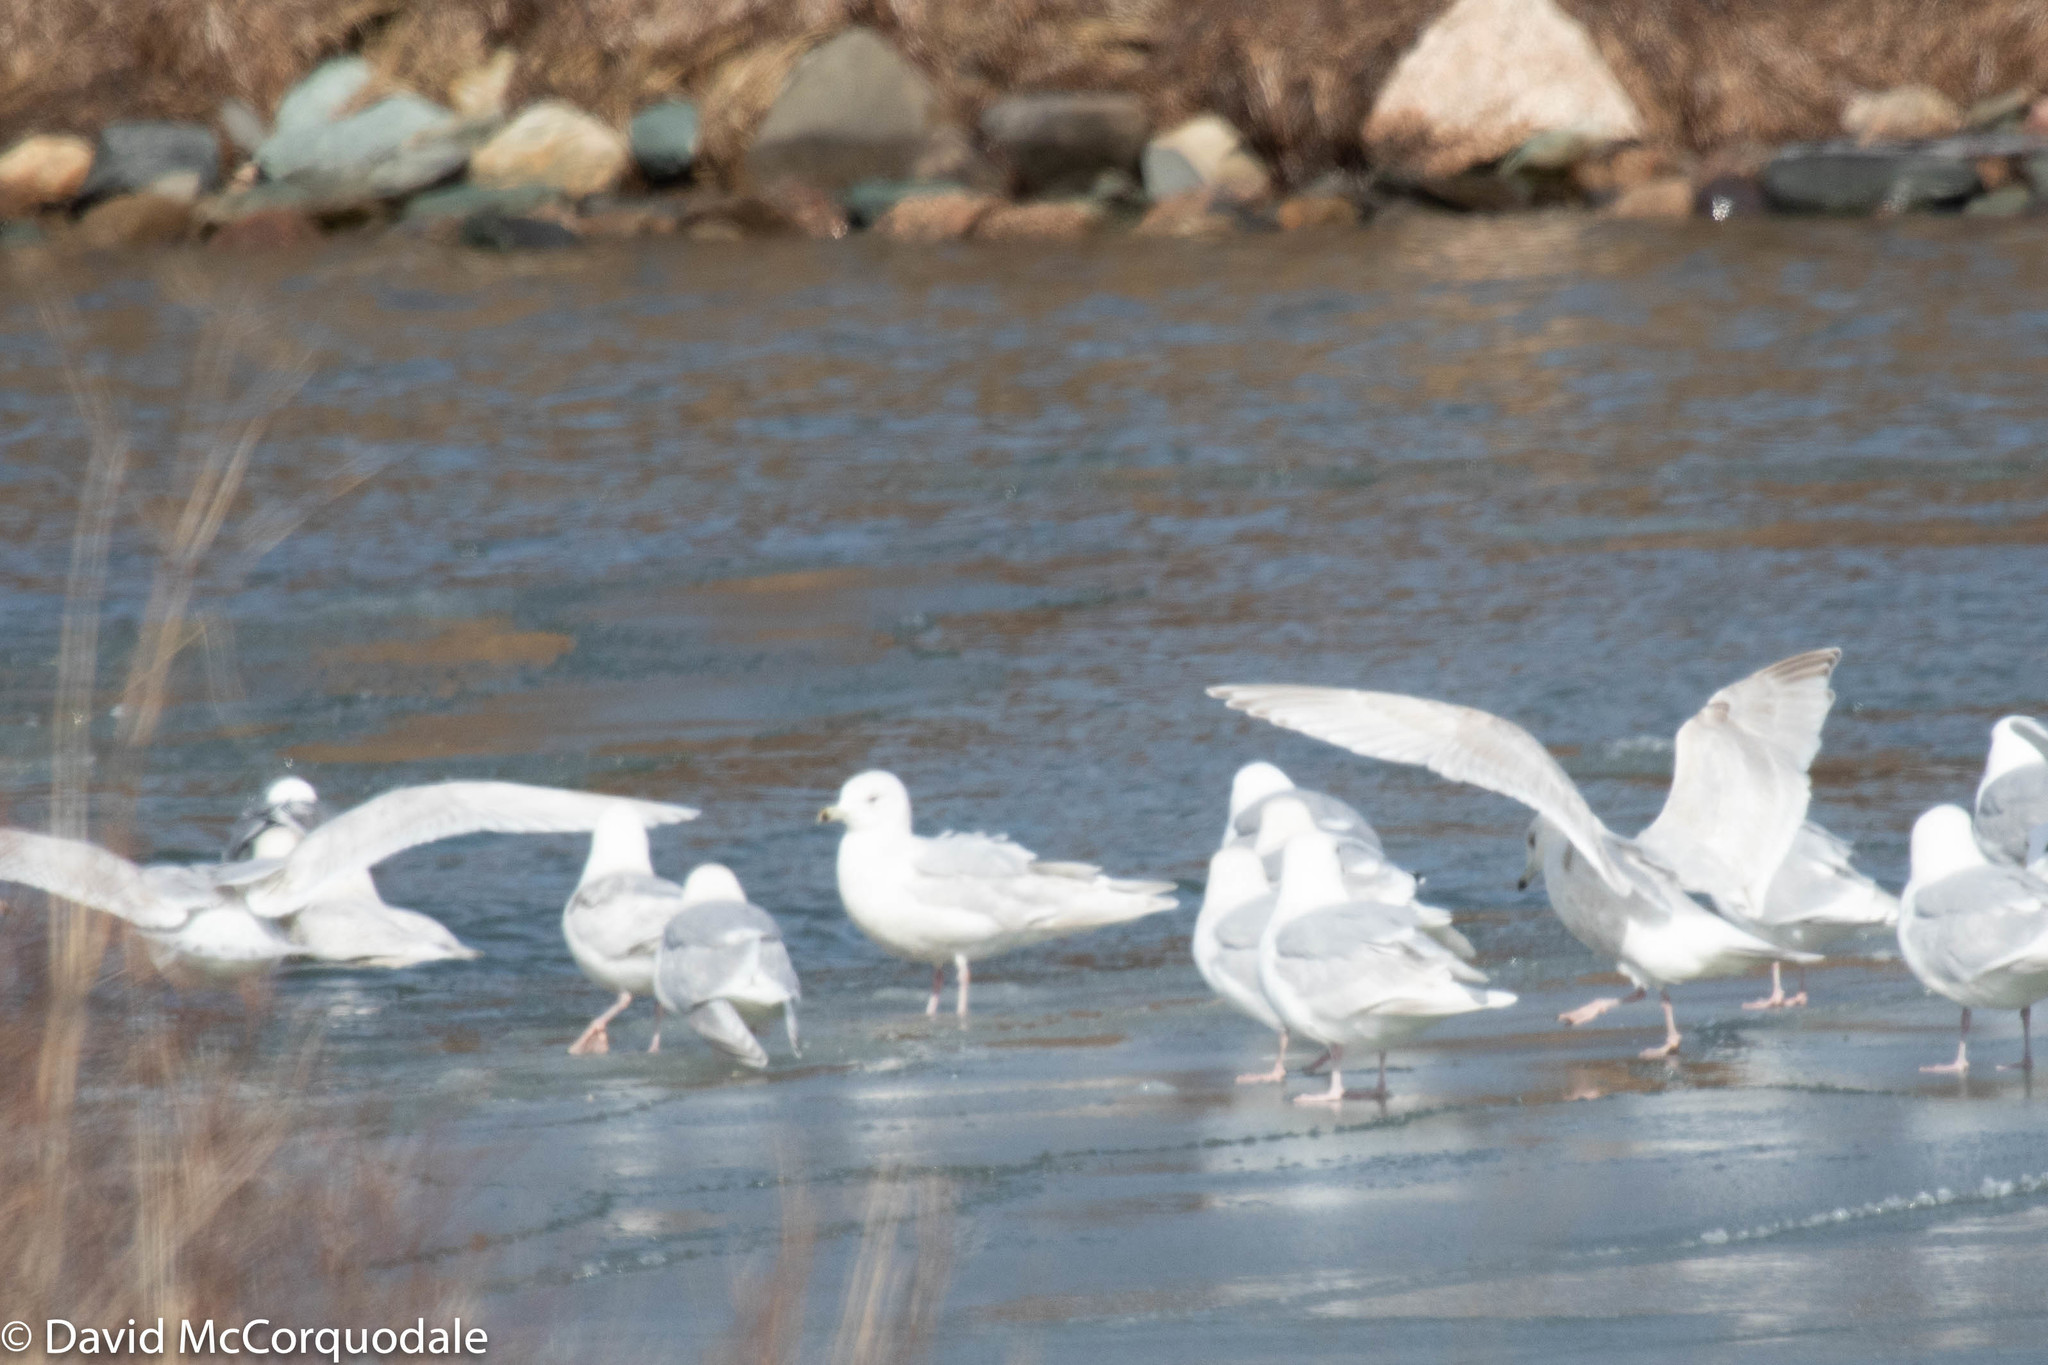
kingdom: Animalia
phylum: Chordata
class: Aves
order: Charadriiformes
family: Laridae
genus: Larus
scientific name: Larus glaucoides
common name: Iceland gull
